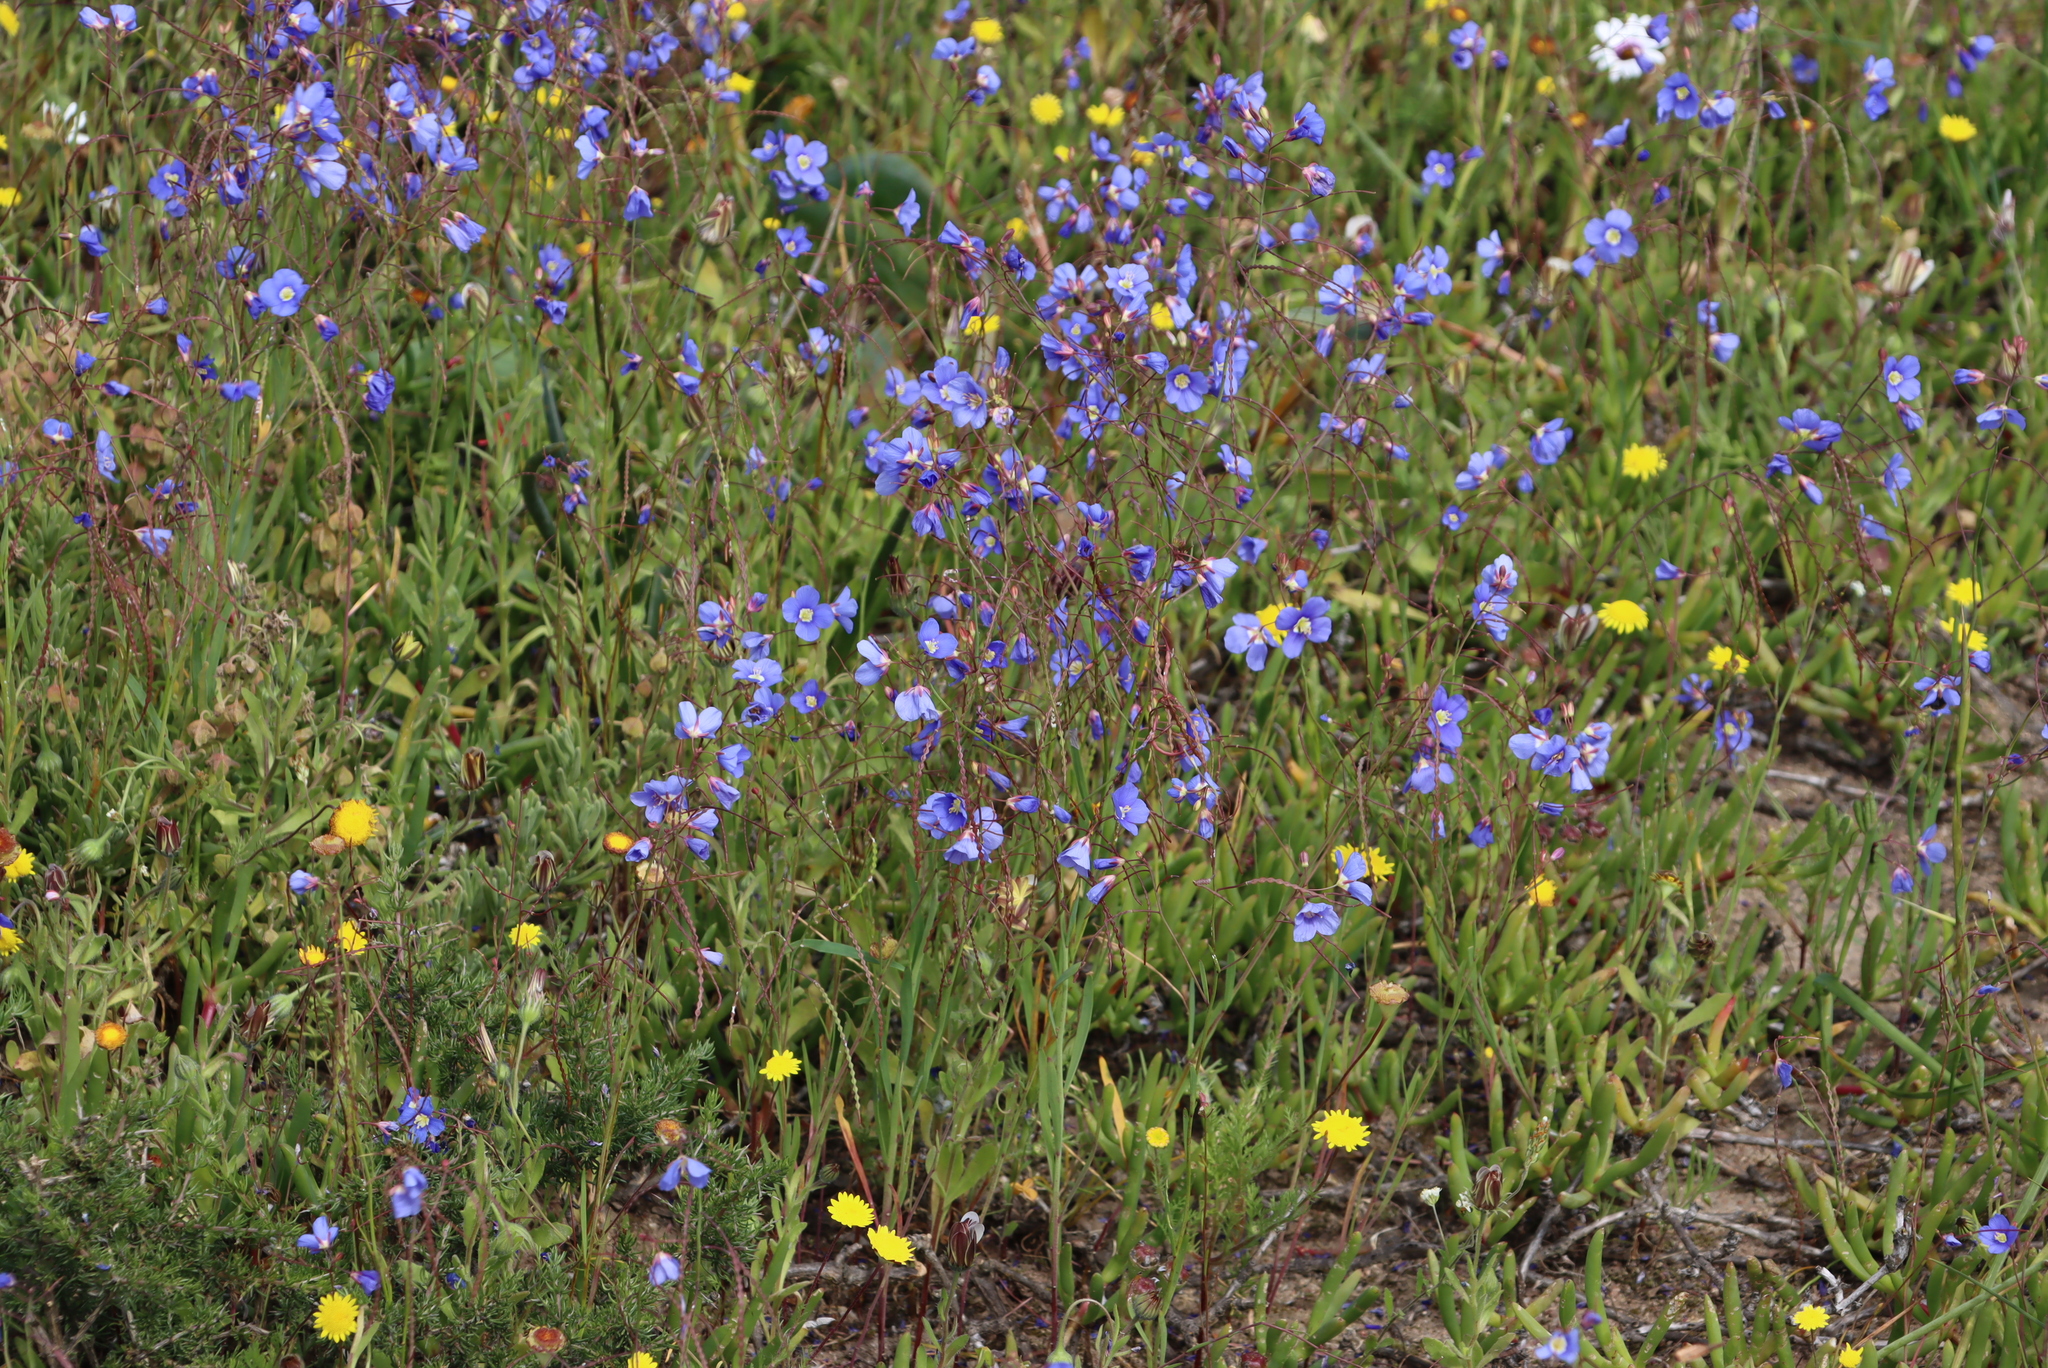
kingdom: Plantae
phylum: Tracheophyta
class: Magnoliopsida
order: Brassicales
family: Brassicaceae
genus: Heliophila
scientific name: Heliophila coronopifolia
